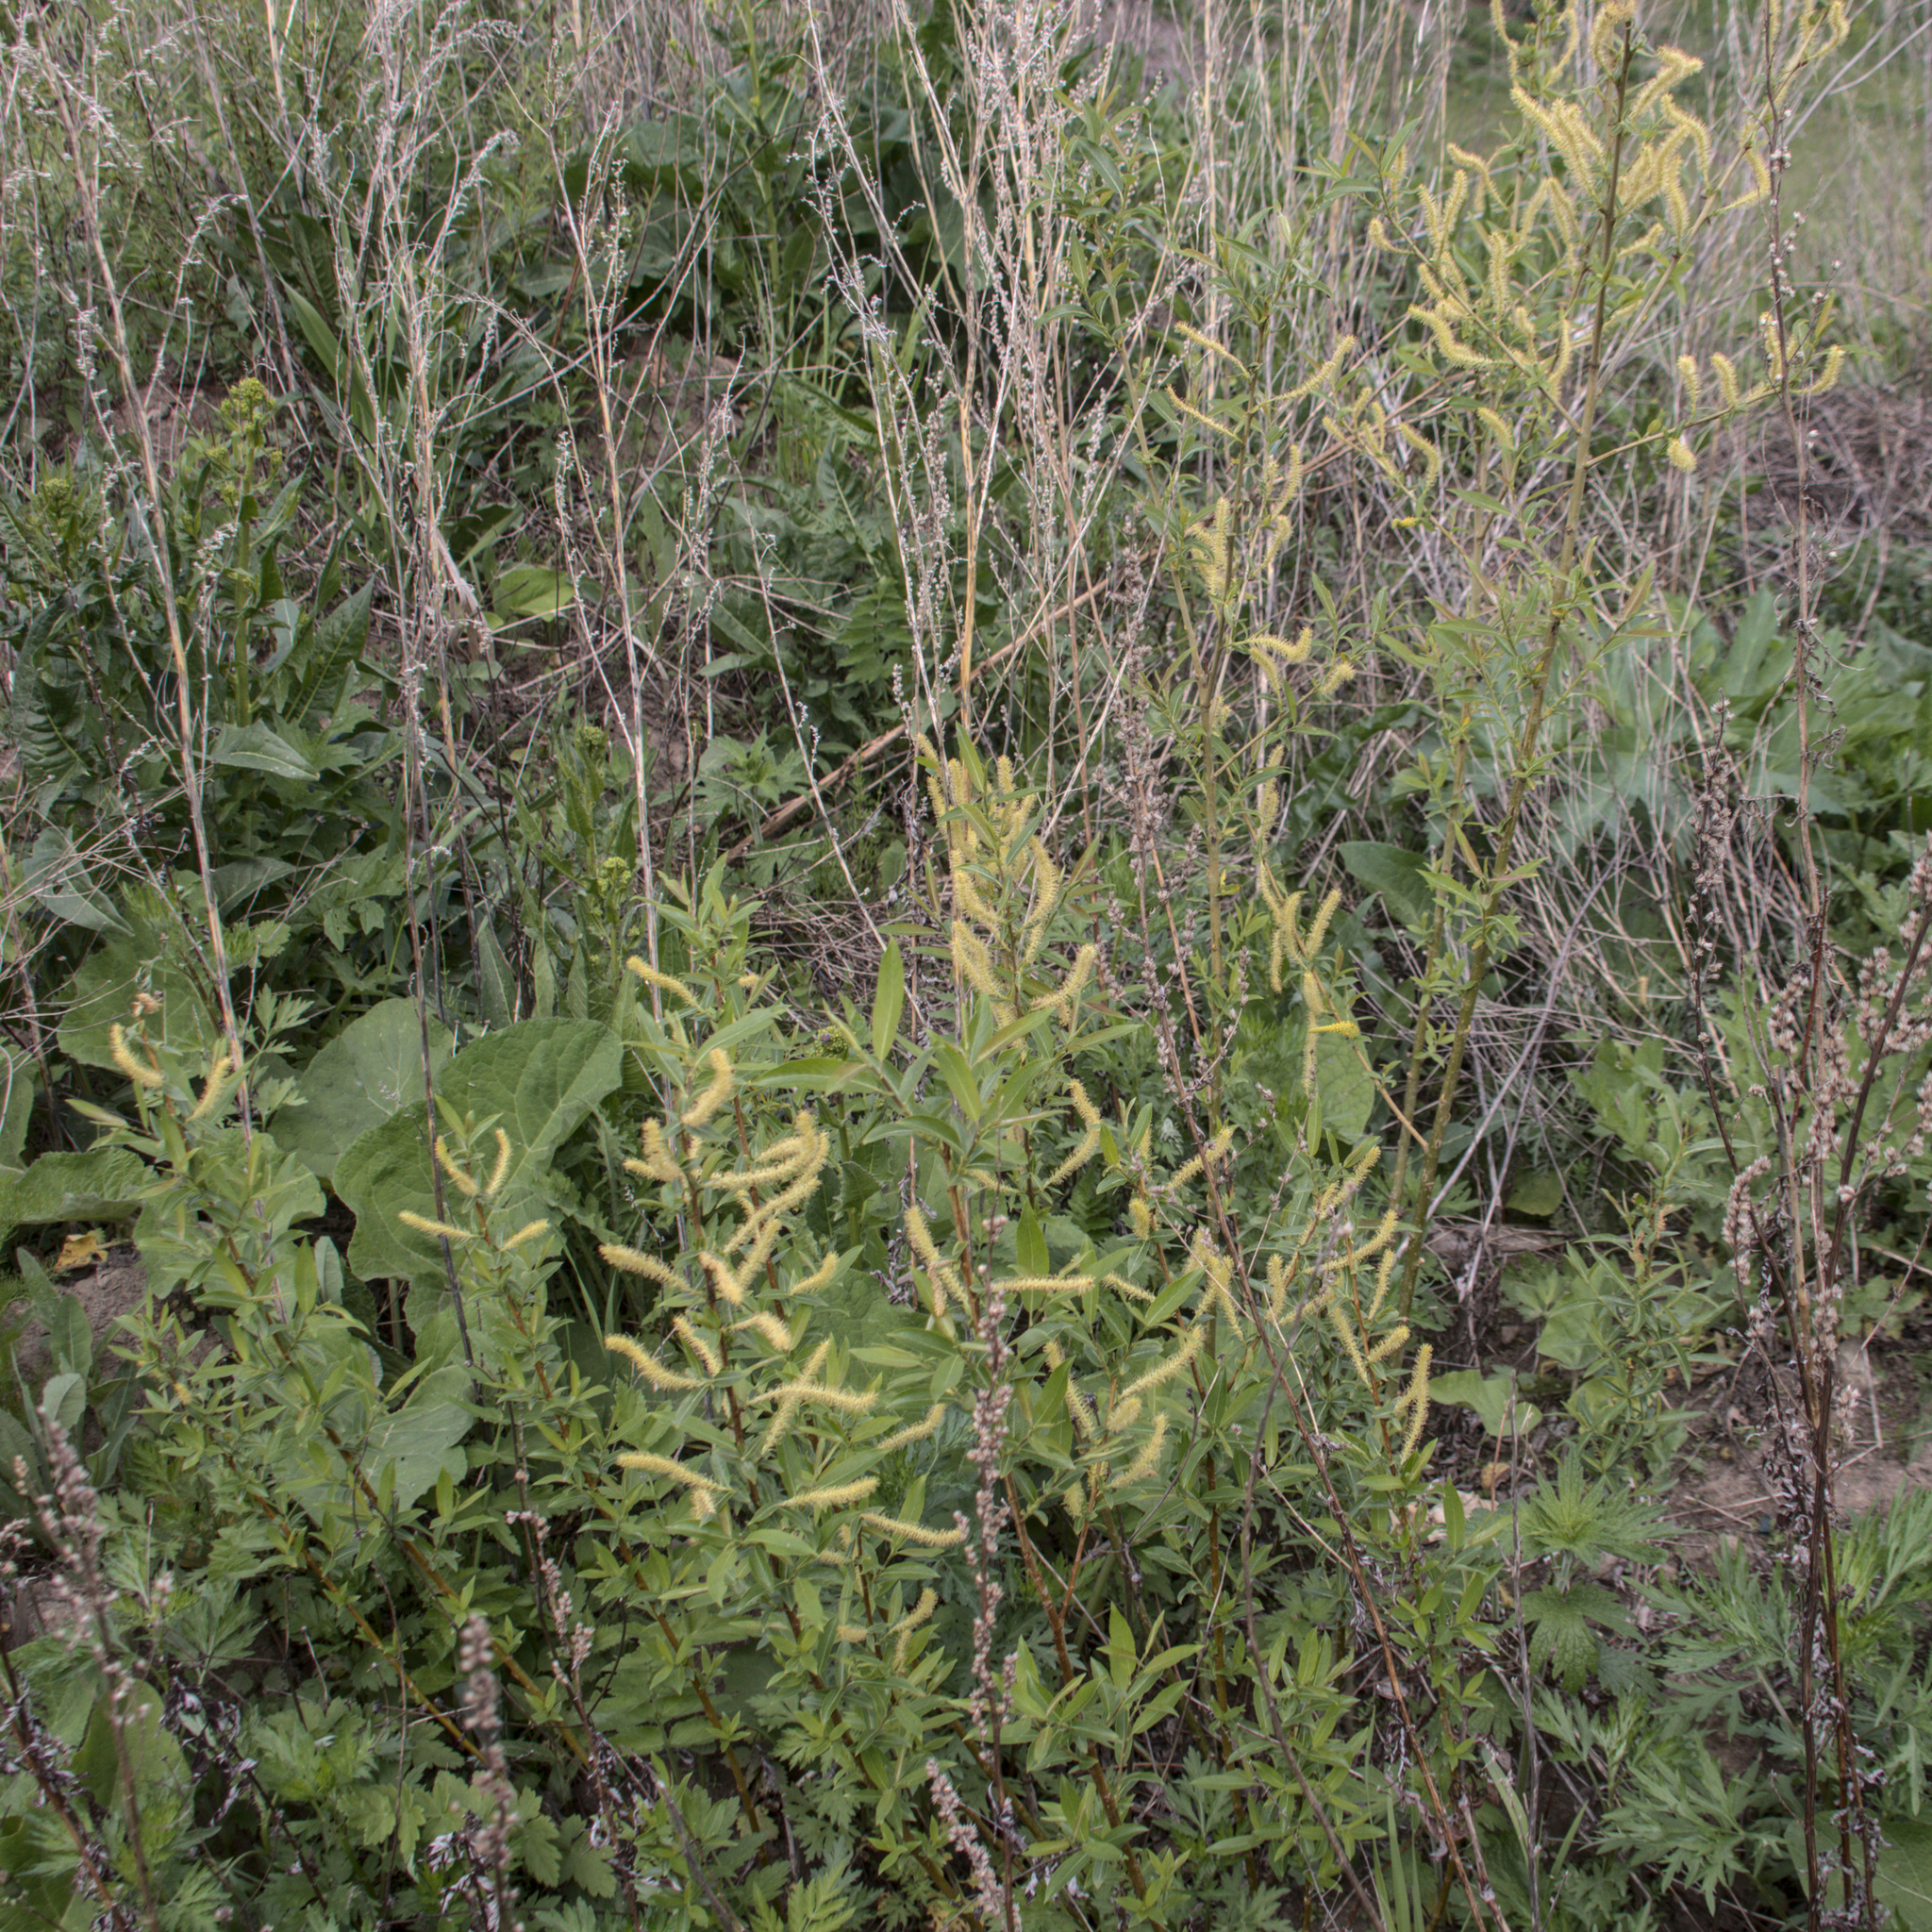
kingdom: Plantae
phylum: Tracheophyta
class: Magnoliopsida
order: Malpighiales
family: Salicaceae
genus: Salix
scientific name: Salix triandra
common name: Almond willow
